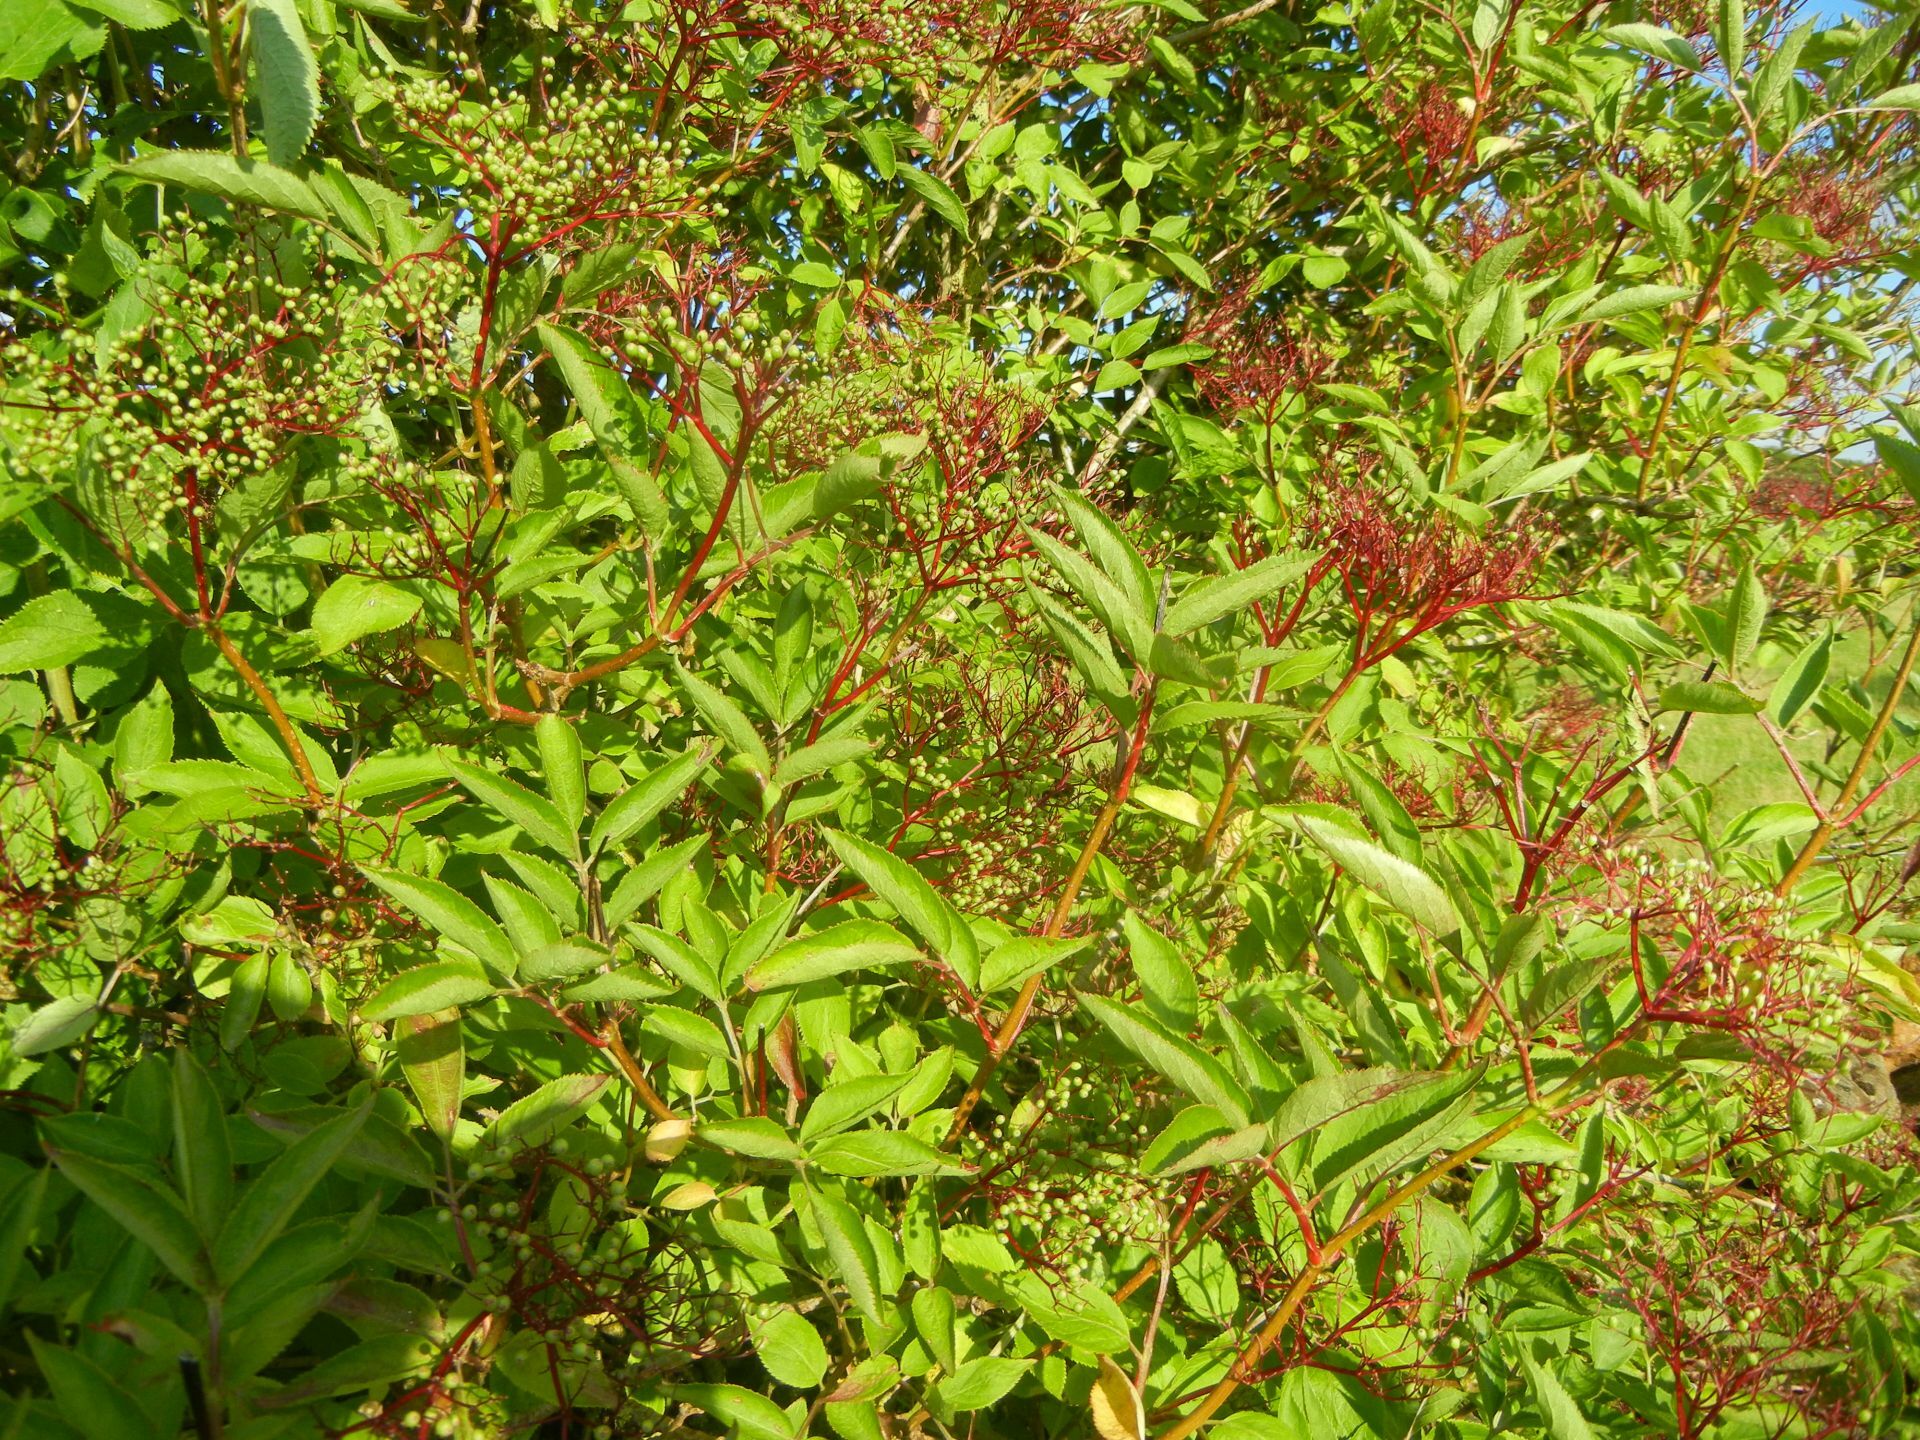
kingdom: Plantae
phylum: Tracheophyta
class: Magnoliopsida
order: Dipsacales
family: Viburnaceae
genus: Sambucus
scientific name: Sambucus nigra
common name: Elder
